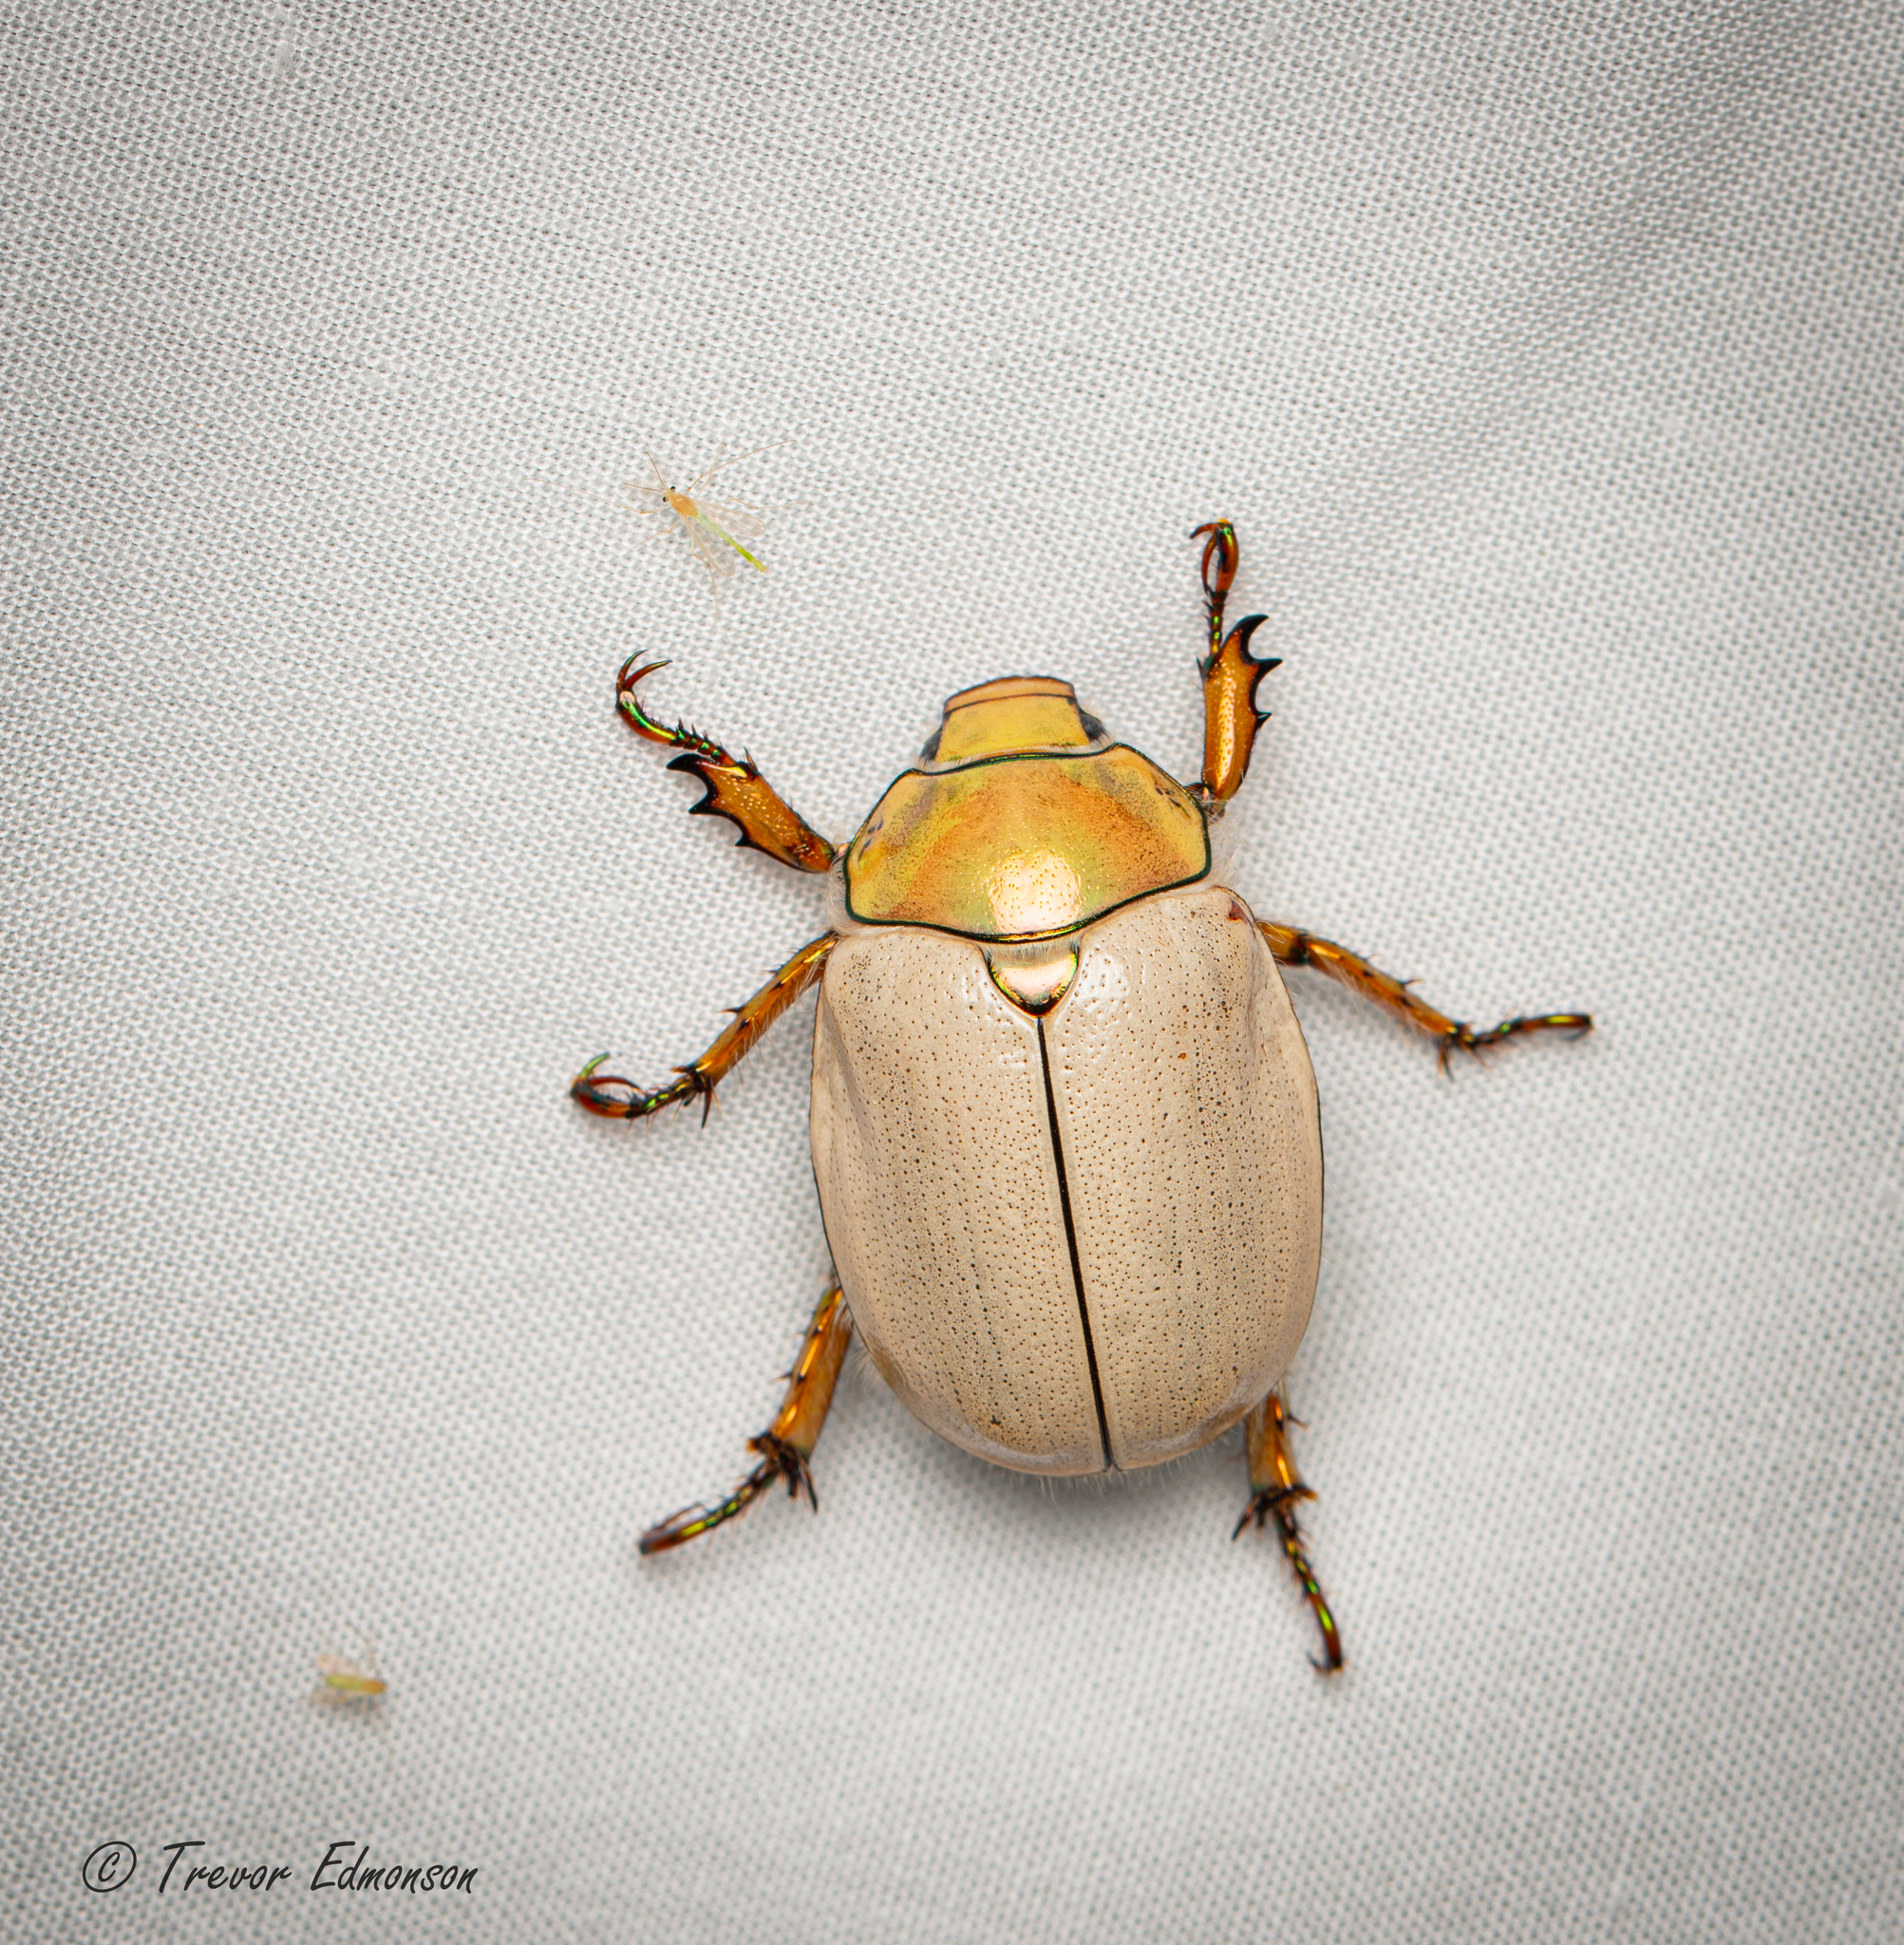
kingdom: Animalia
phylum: Arthropoda
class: Insecta
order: Coleoptera
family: Scarabaeidae
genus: Cotalpa
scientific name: Cotalpa lanigera
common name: Goldsmith beetle
